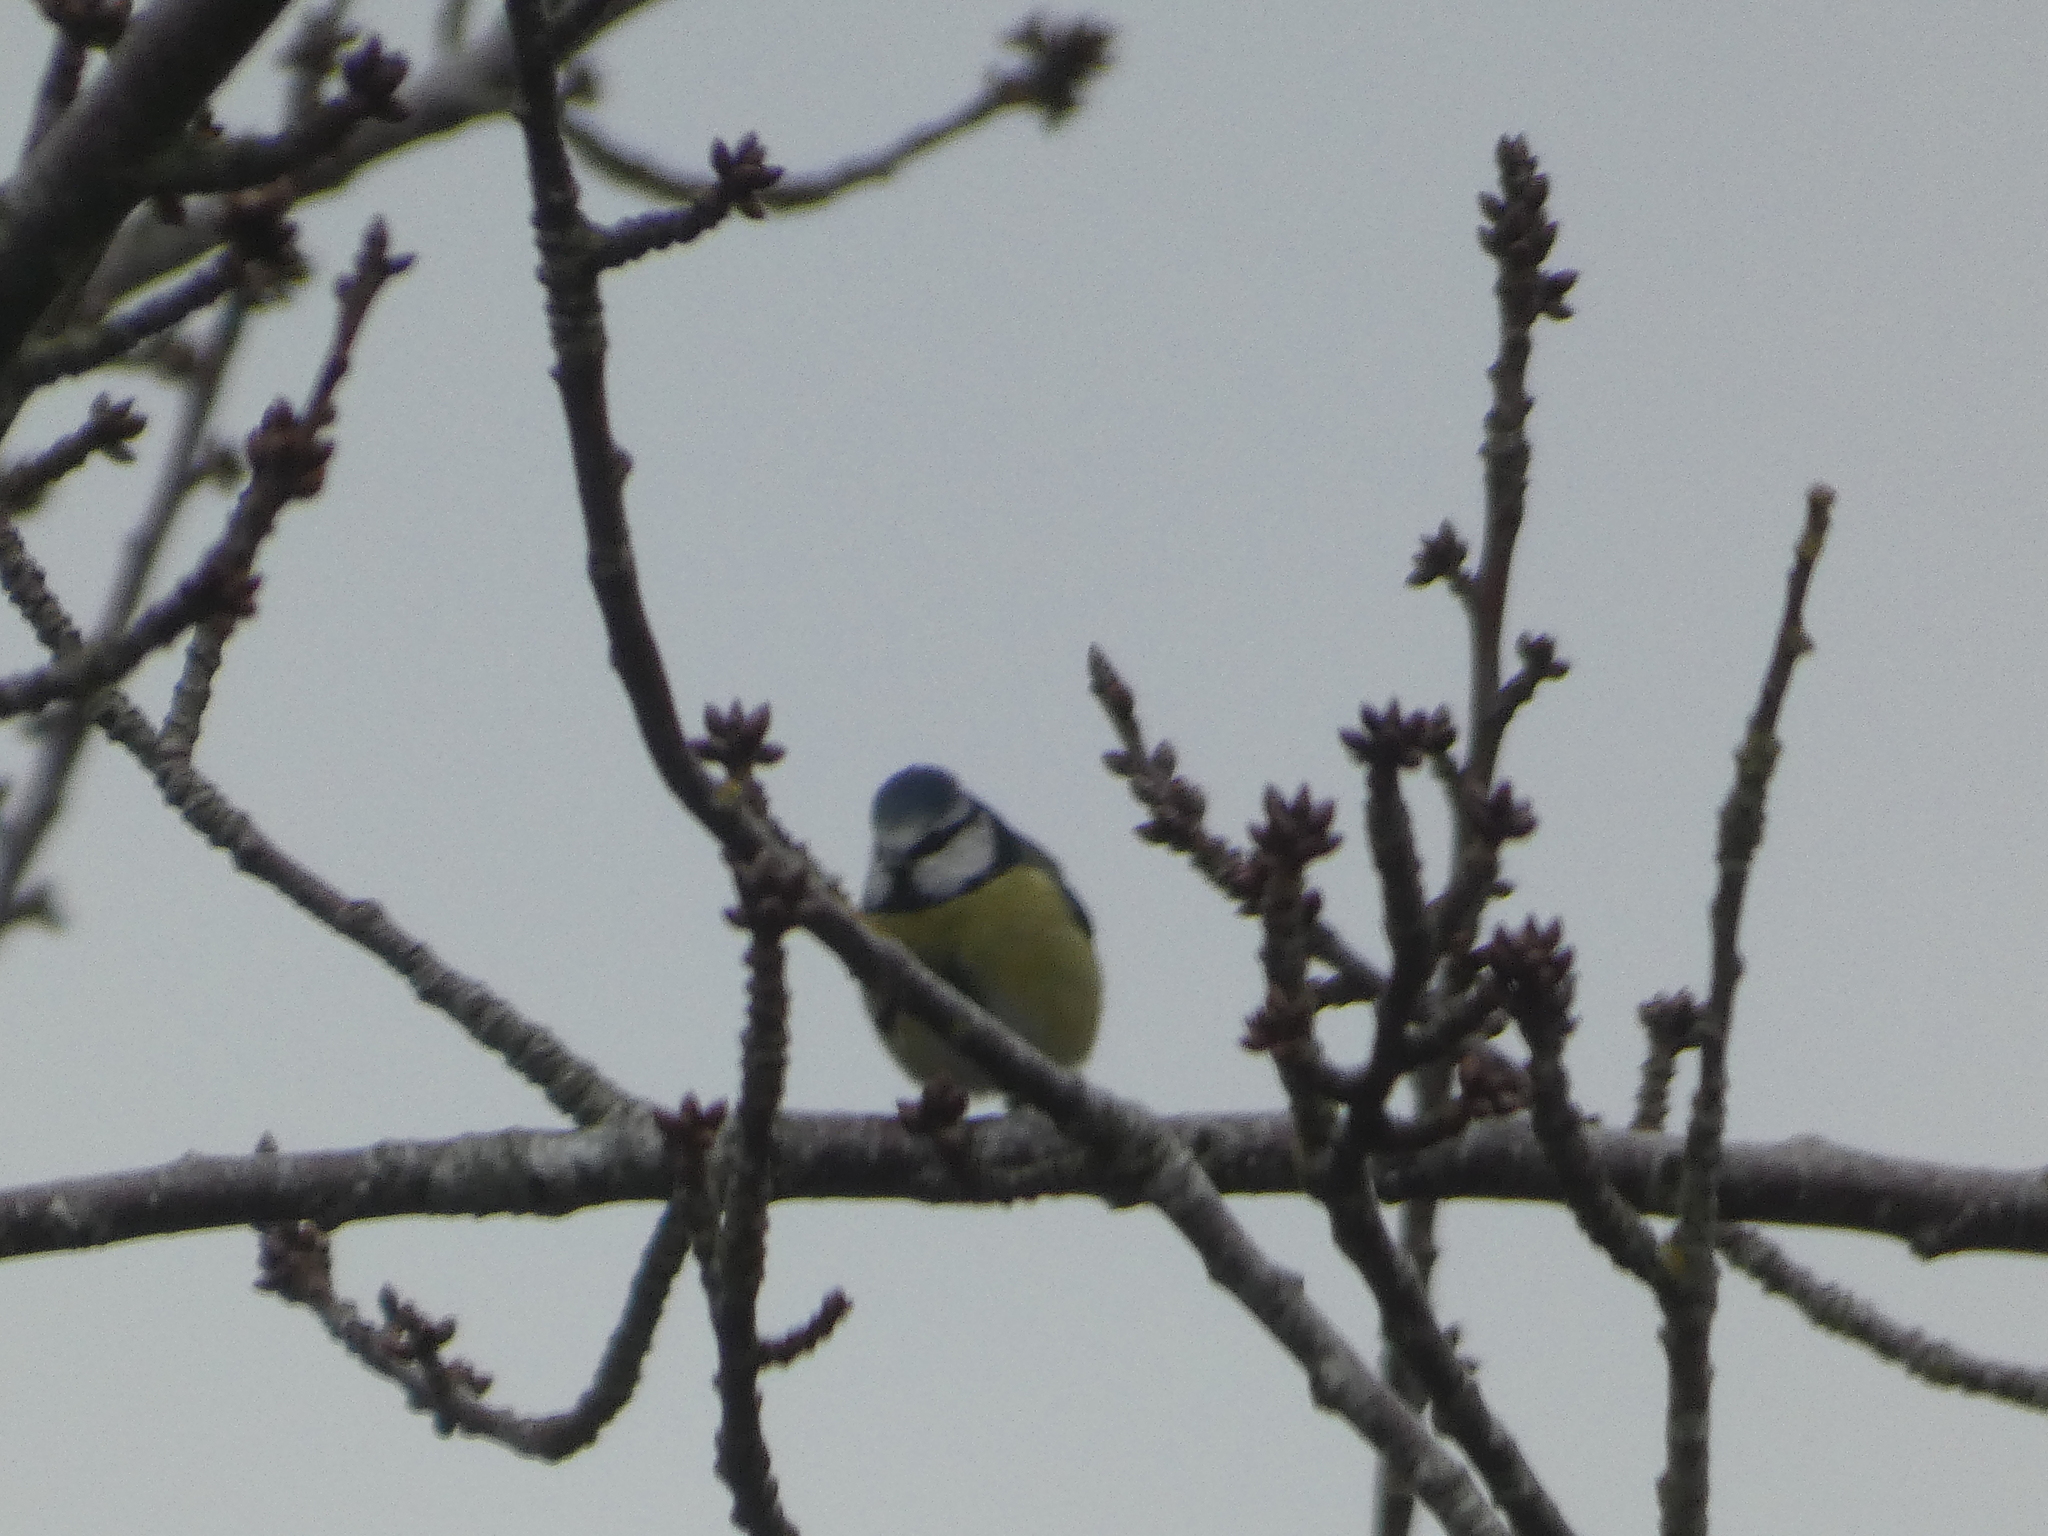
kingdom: Animalia
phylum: Chordata
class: Aves
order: Passeriformes
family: Paridae
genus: Cyanistes
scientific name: Cyanistes caeruleus
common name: Eurasian blue tit
